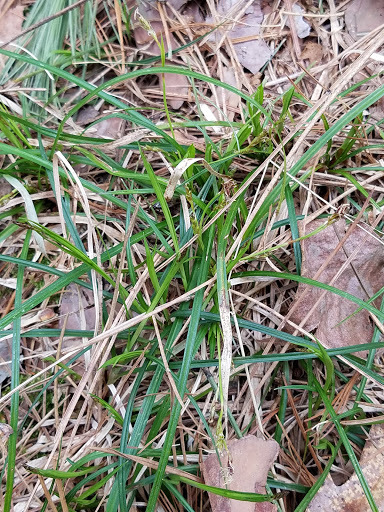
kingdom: Plantae
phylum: Tracheophyta
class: Liliopsida
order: Poales
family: Cyperaceae
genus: Carex
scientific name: Carex pedunculata
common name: Pedunculate sedge
